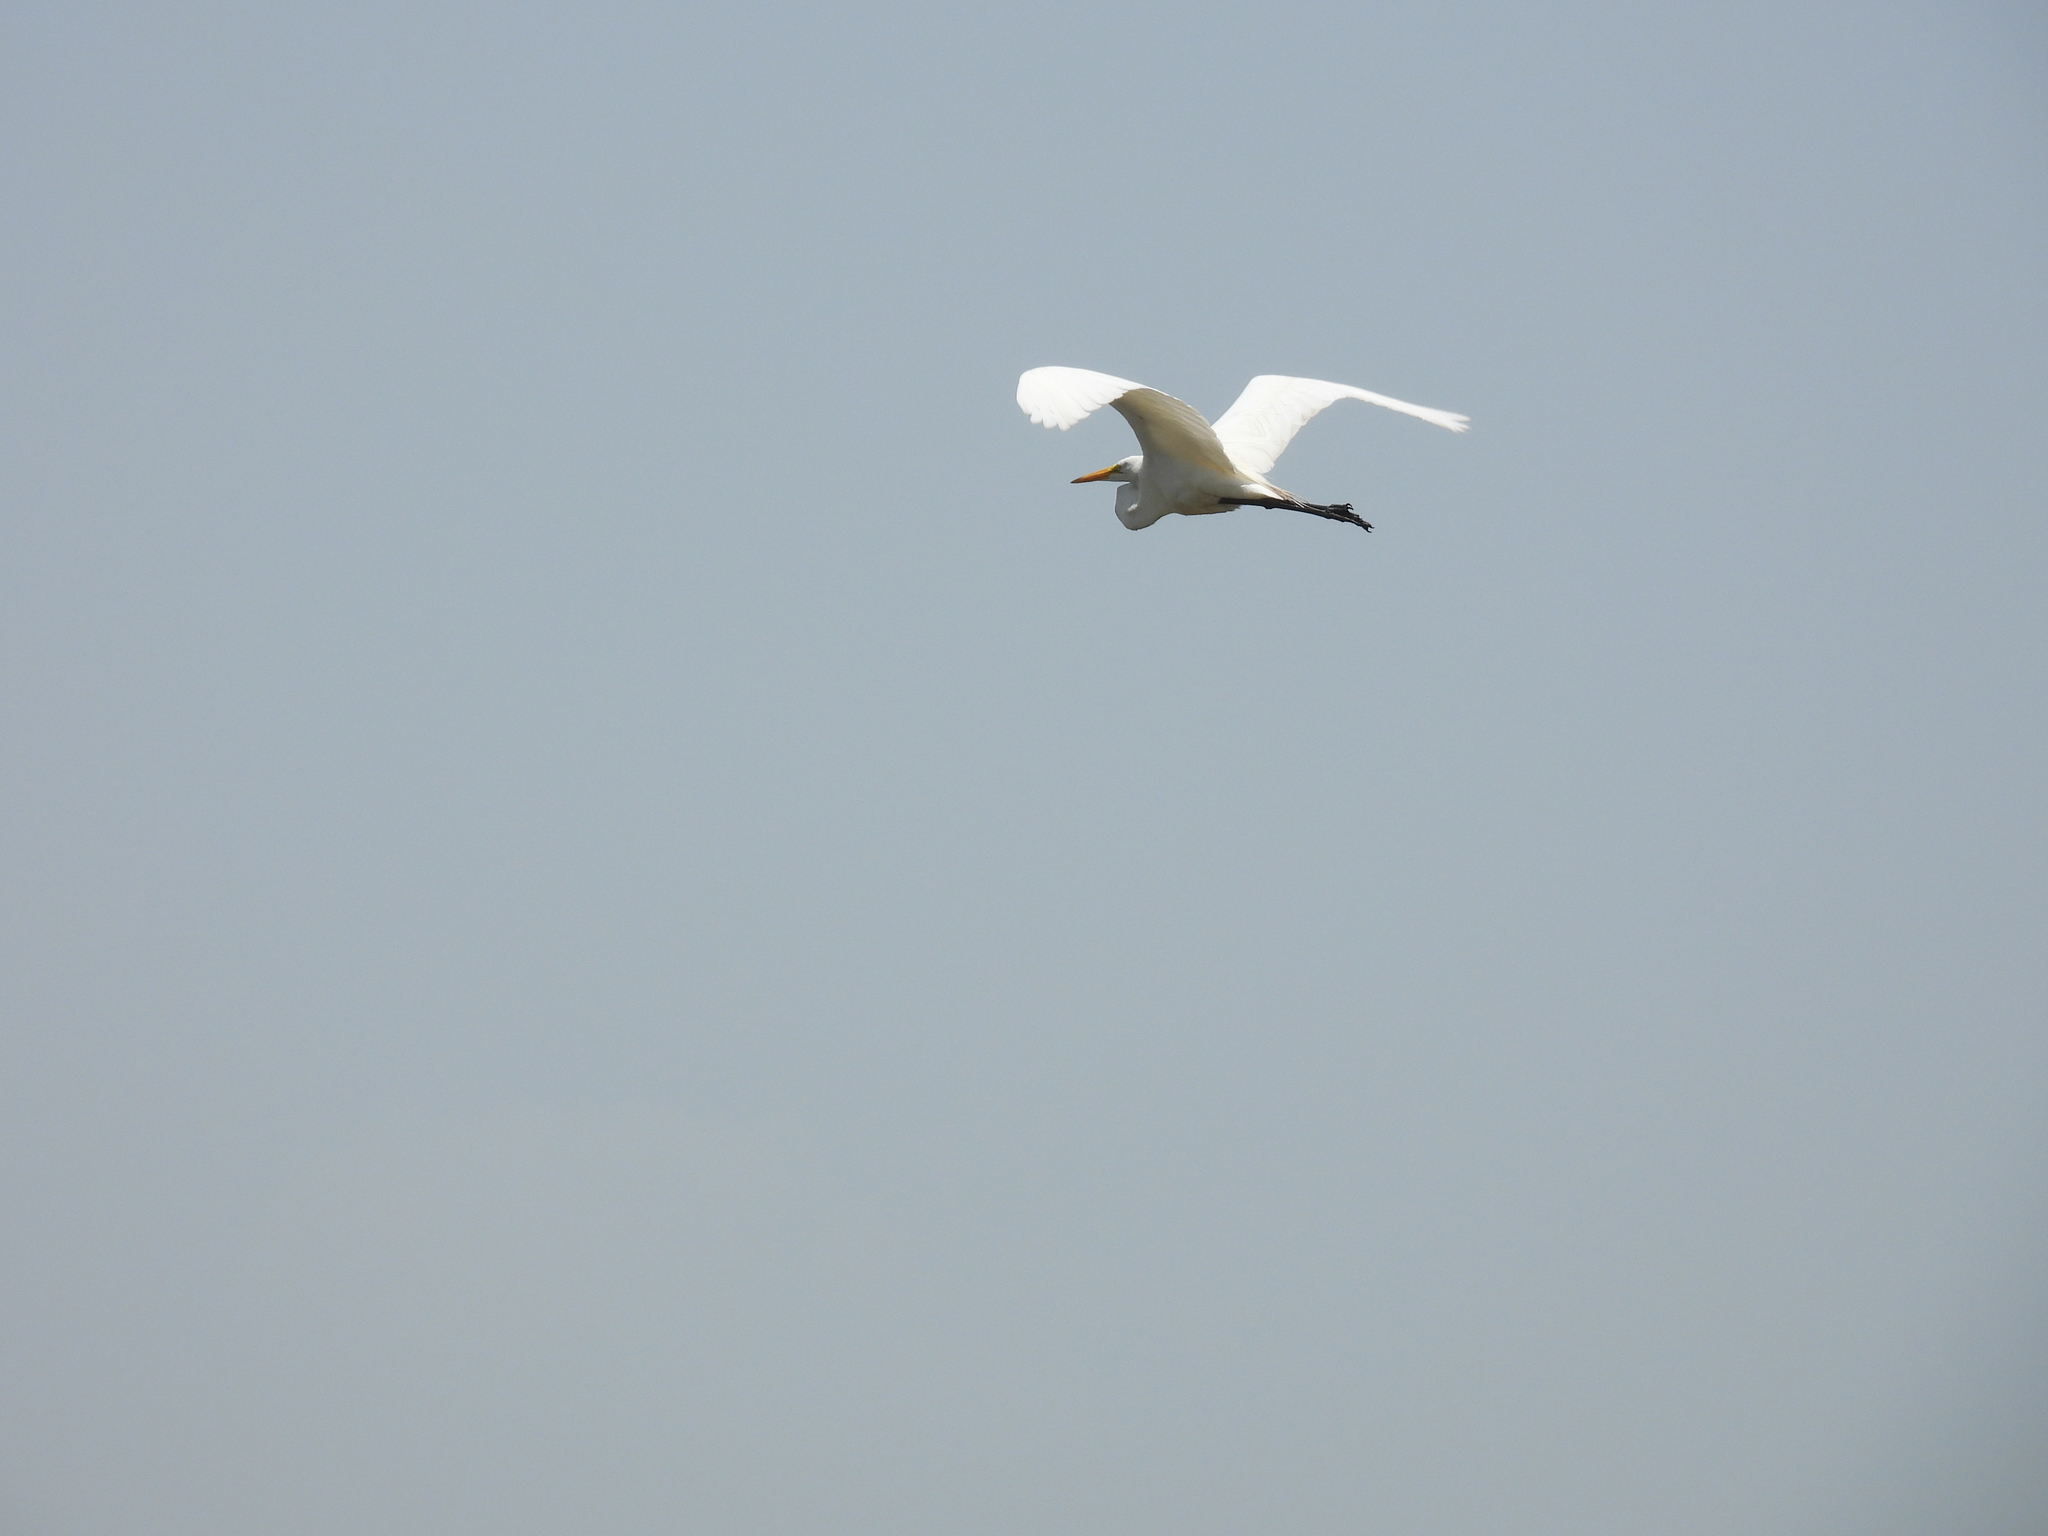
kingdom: Animalia
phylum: Chordata
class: Aves
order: Pelecaniformes
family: Ardeidae
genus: Ardea
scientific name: Ardea alba
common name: Great egret
